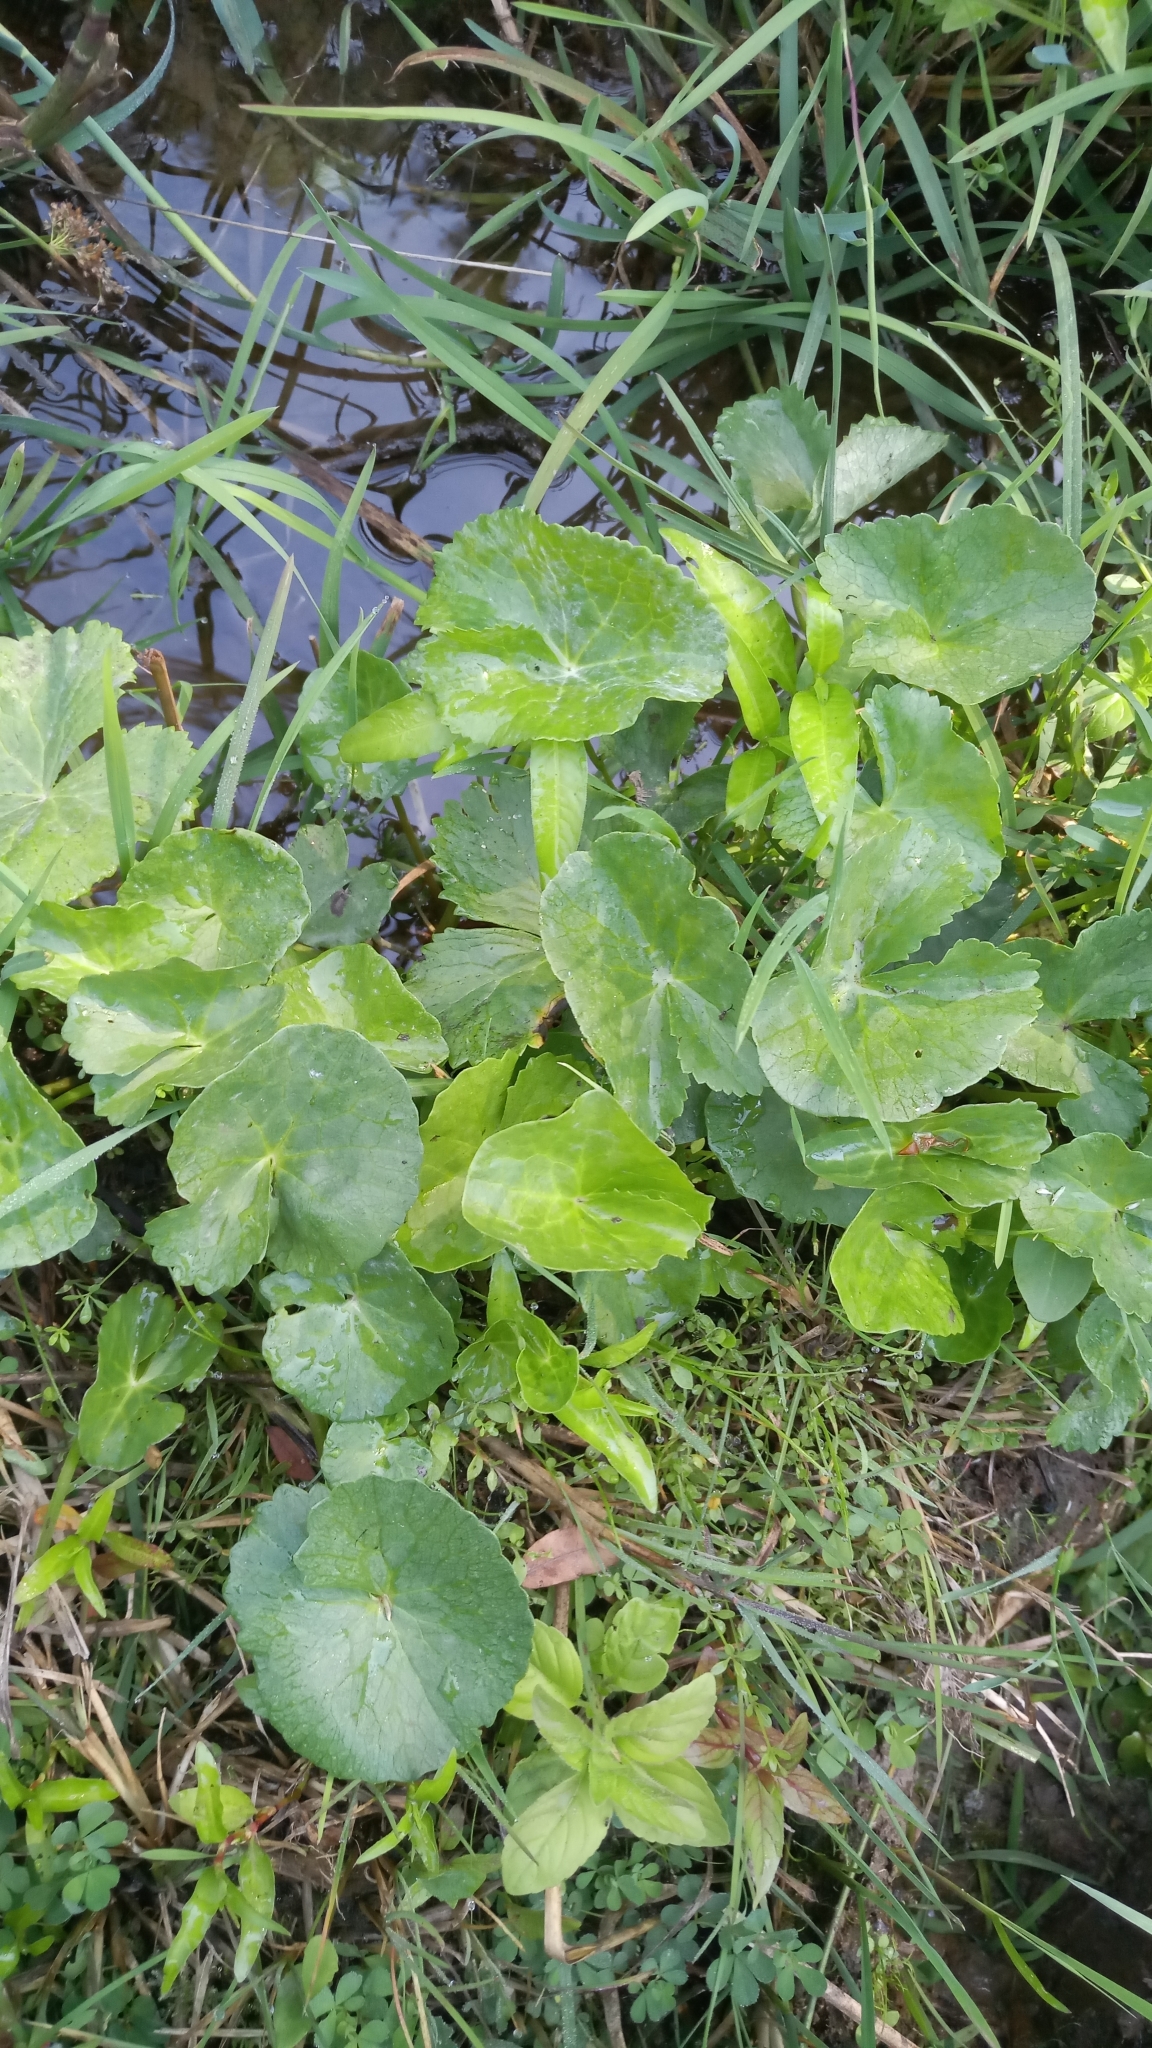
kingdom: Plantae
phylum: Tracheophyta
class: Magnoliopsida
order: Ranunculales
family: Ranunculaceae
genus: Caltha
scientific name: Caltha palustris
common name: Marsh marigold
